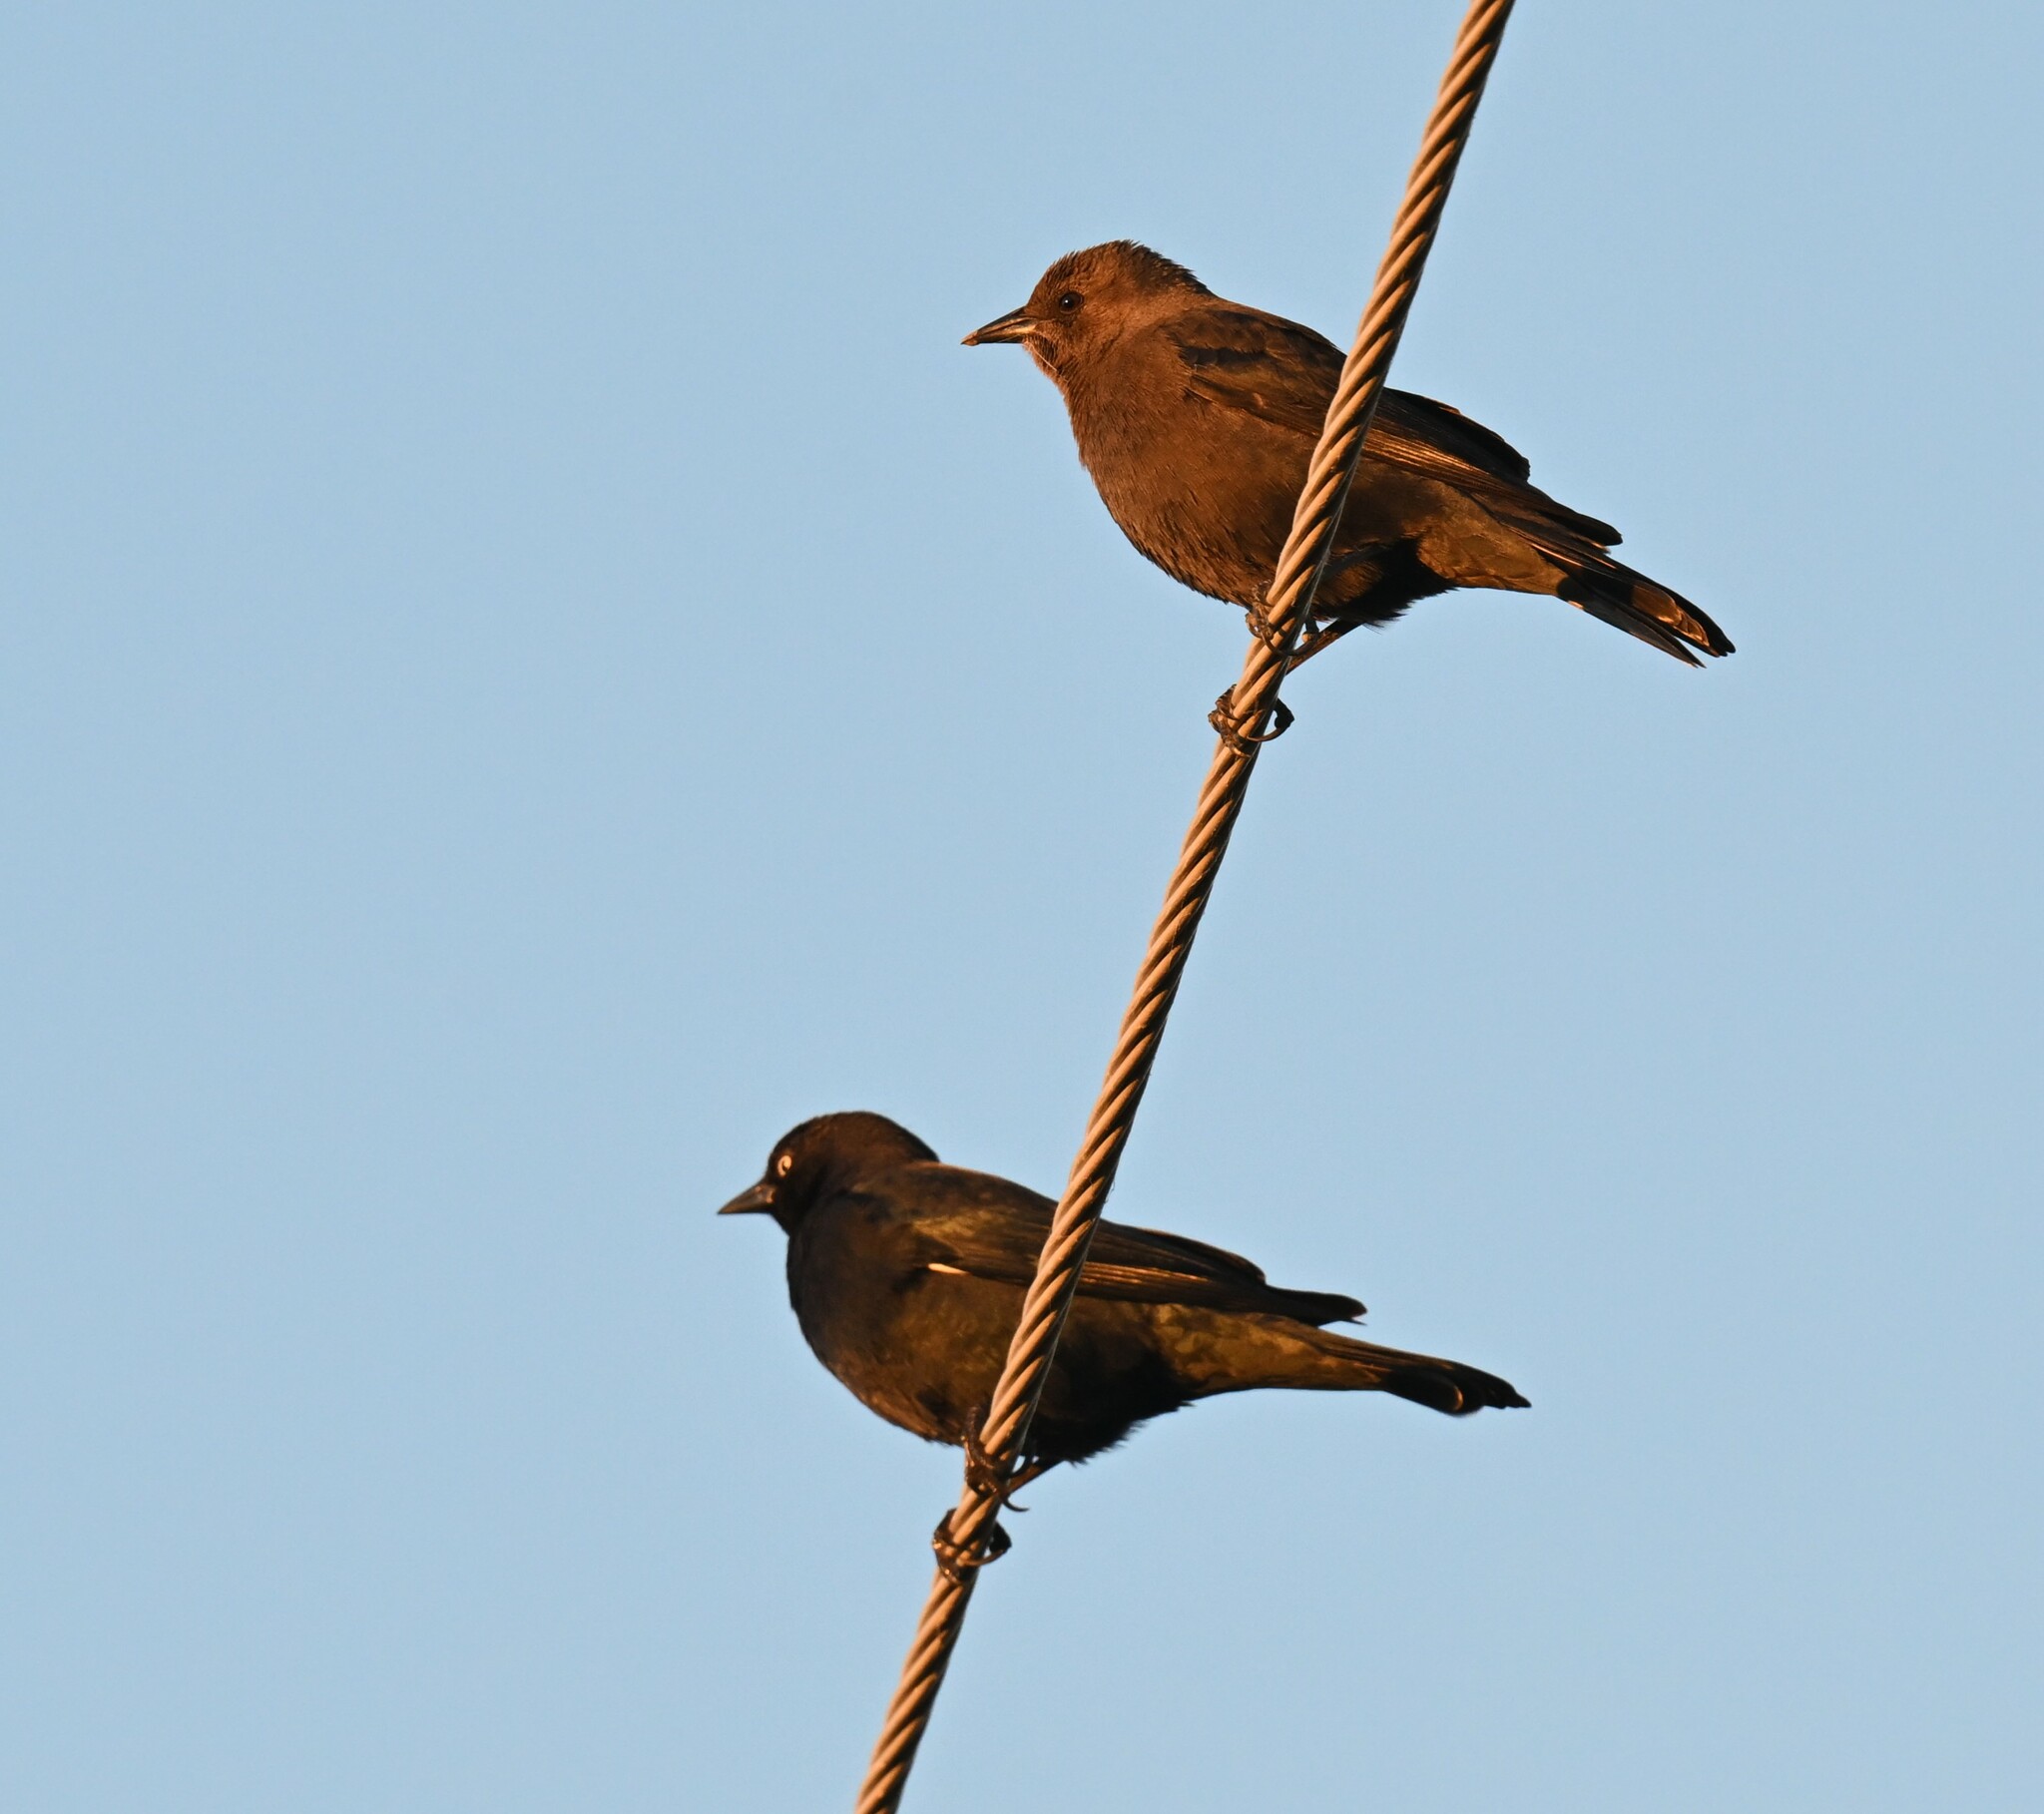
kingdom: Animalia
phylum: Chordata
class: Aves
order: Passeriformes
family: Icteridae
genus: Euphagus
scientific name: Euphagus cyanocephalus
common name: Brewer's blackbird
